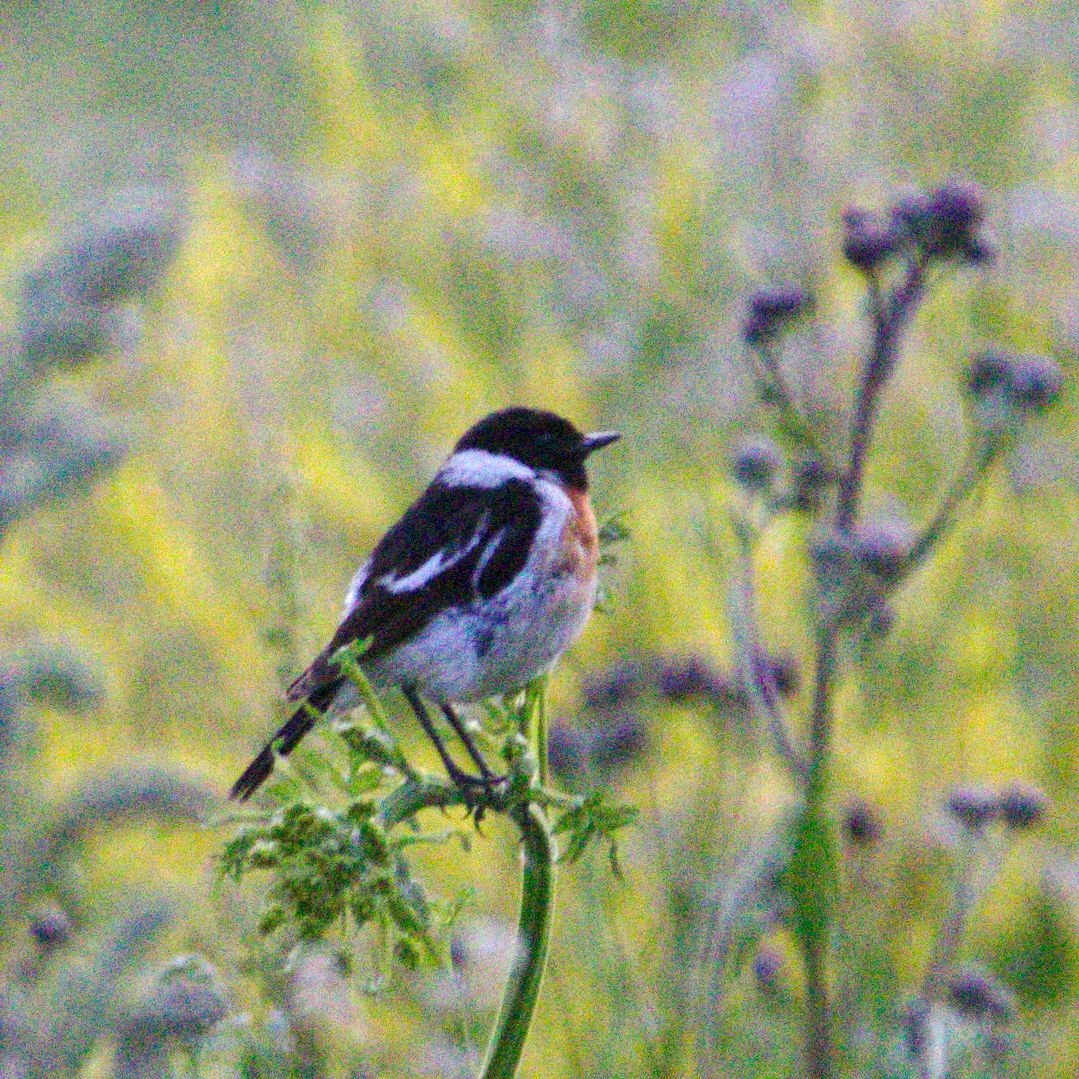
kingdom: Animalia
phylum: Chordata
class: Aves
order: Passeriformes
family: Muscicapidae
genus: Saxicola
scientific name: Saxicola maurus
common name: Siberian stonechat
